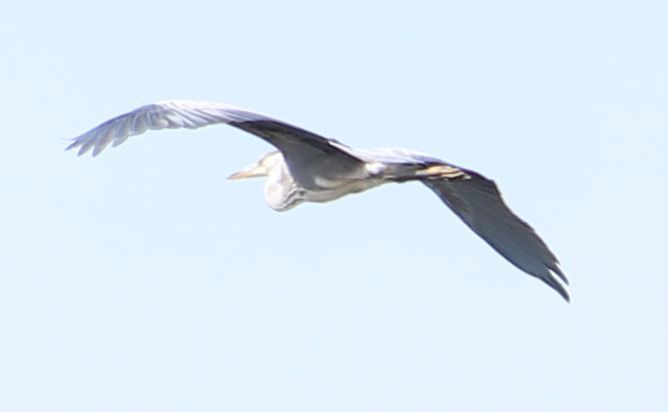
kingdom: Animalia
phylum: Chordata
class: Aves
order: Pelecaniformes
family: Ardeidae
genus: Ardea
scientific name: Ardea cinerea
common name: Grey heron
